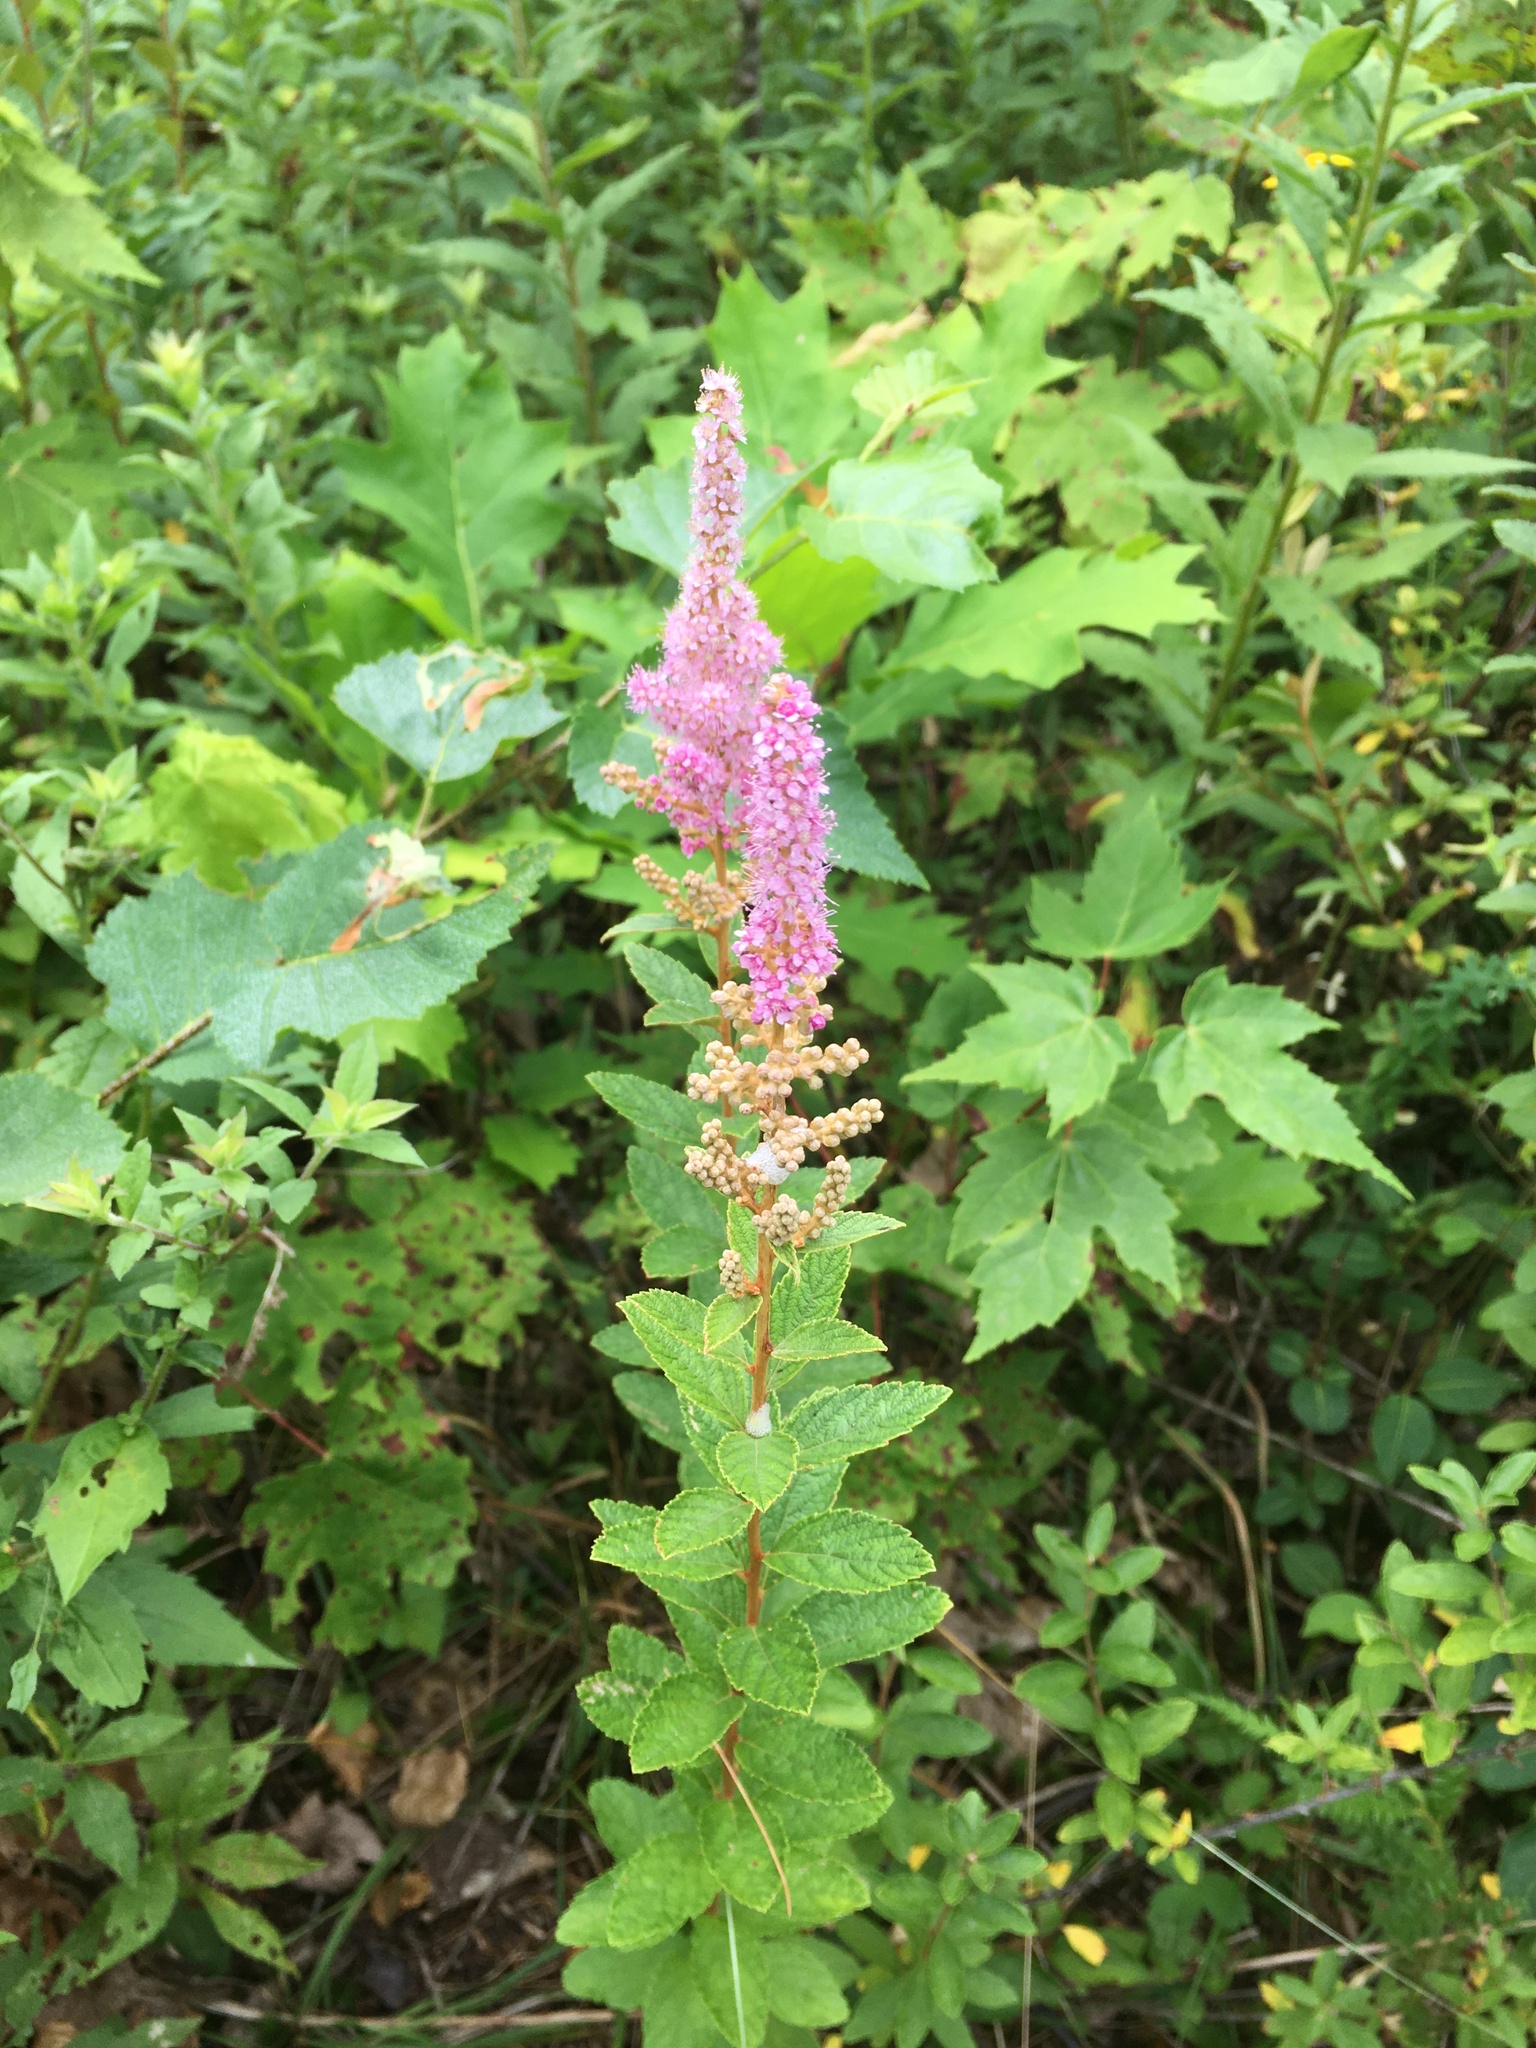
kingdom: Plantae
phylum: Tracheophyta
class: Magnoliopsida
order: Rosales
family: Rosaceae
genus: Spiraea
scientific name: Spiraea tomentosa
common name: Hardhack
